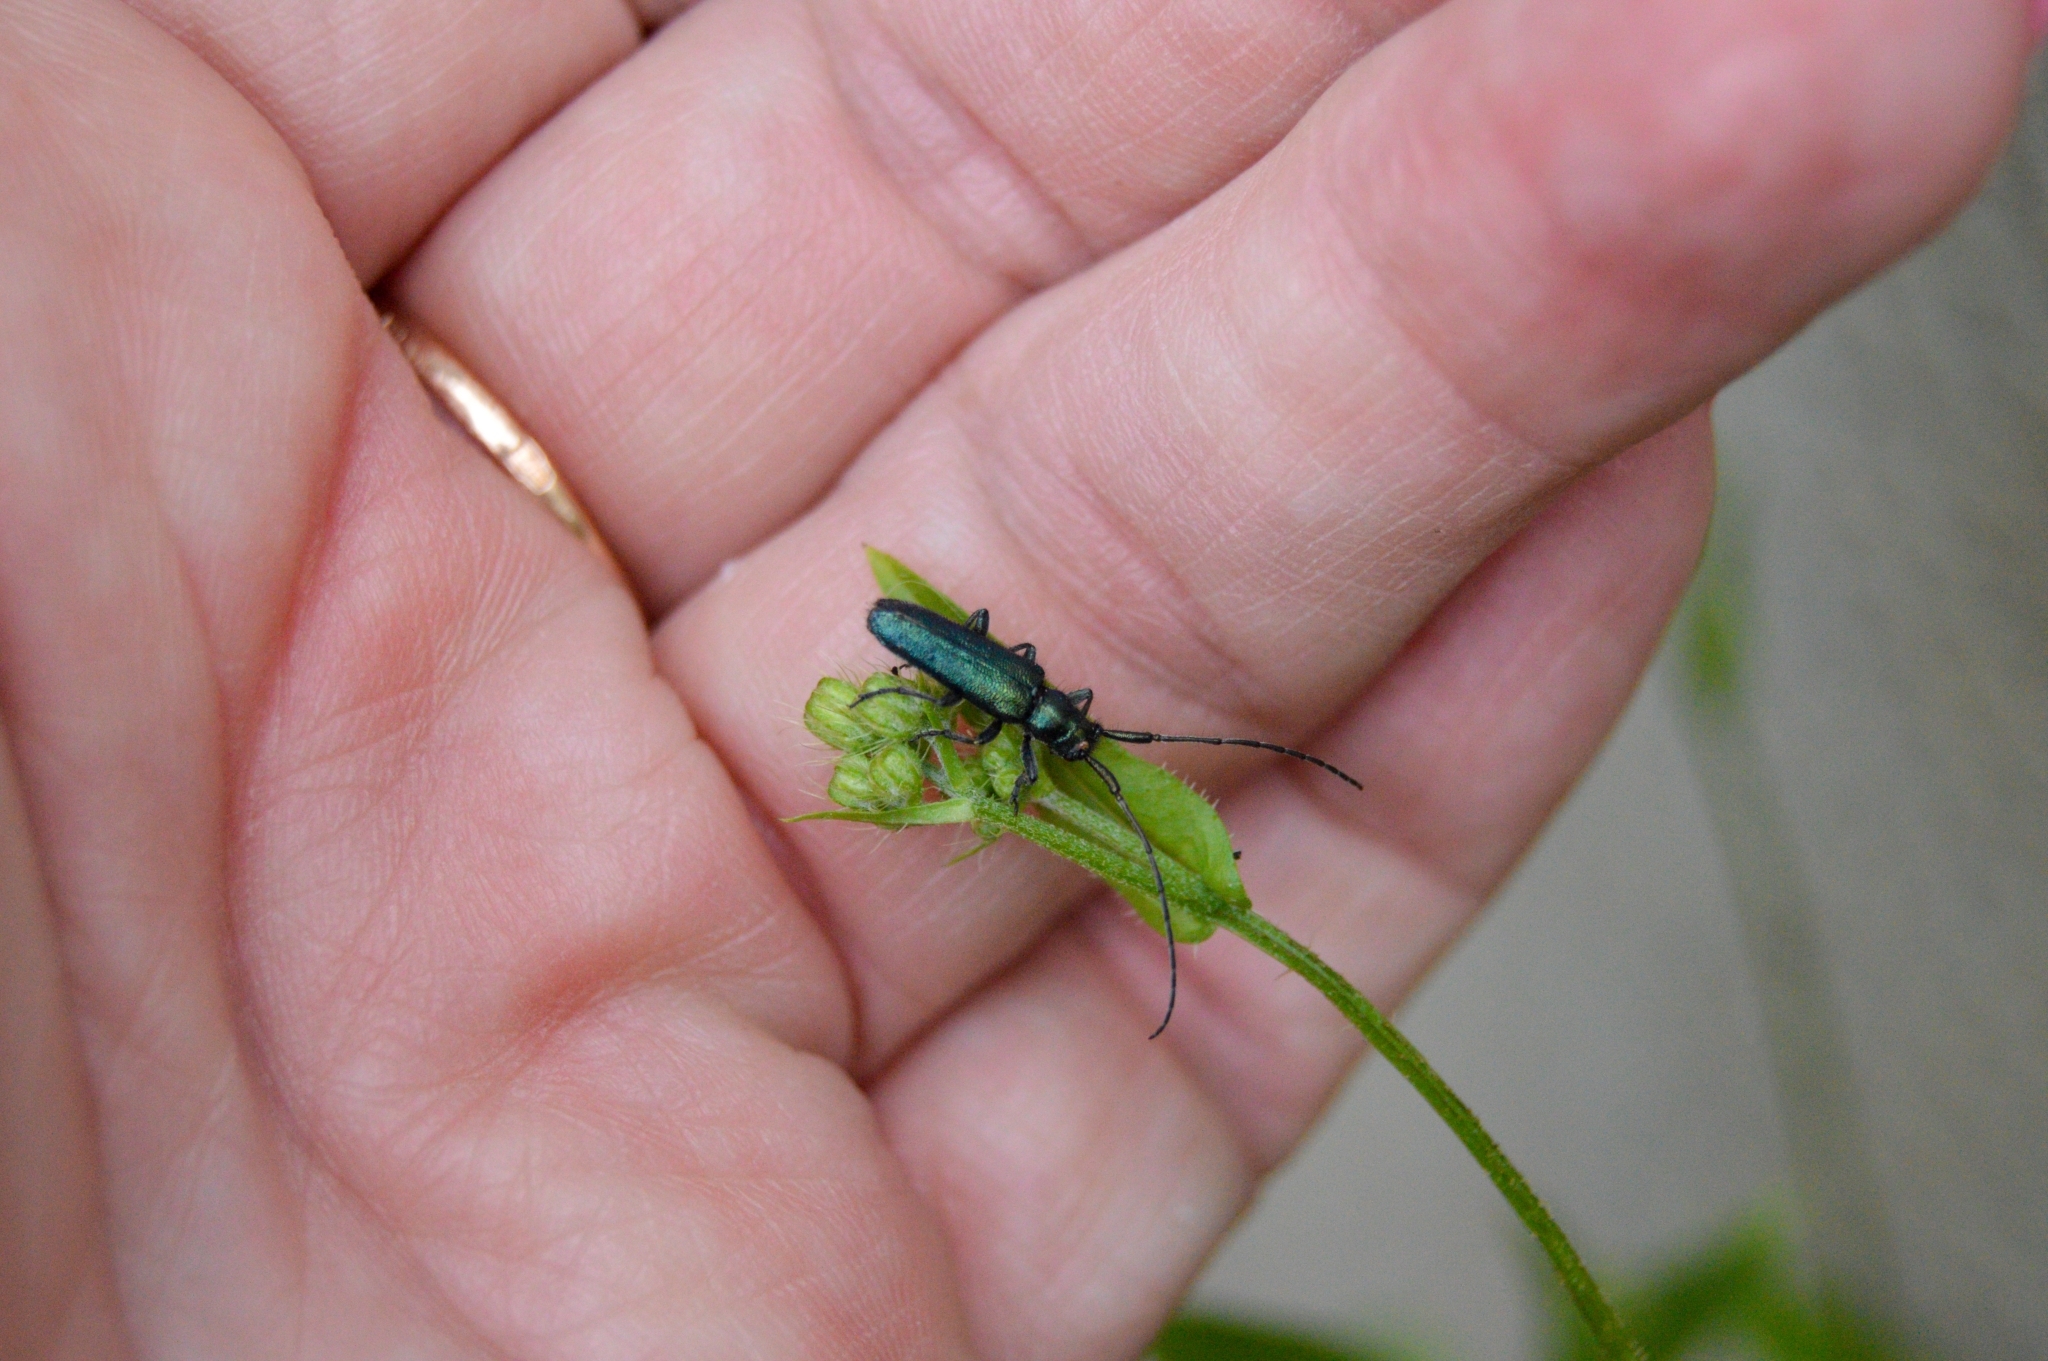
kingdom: Animalia
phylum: Arthropoda
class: Insecta
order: Coleoptera
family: Cerambycidae
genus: Agapanthia
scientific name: Agapanthia violacea
